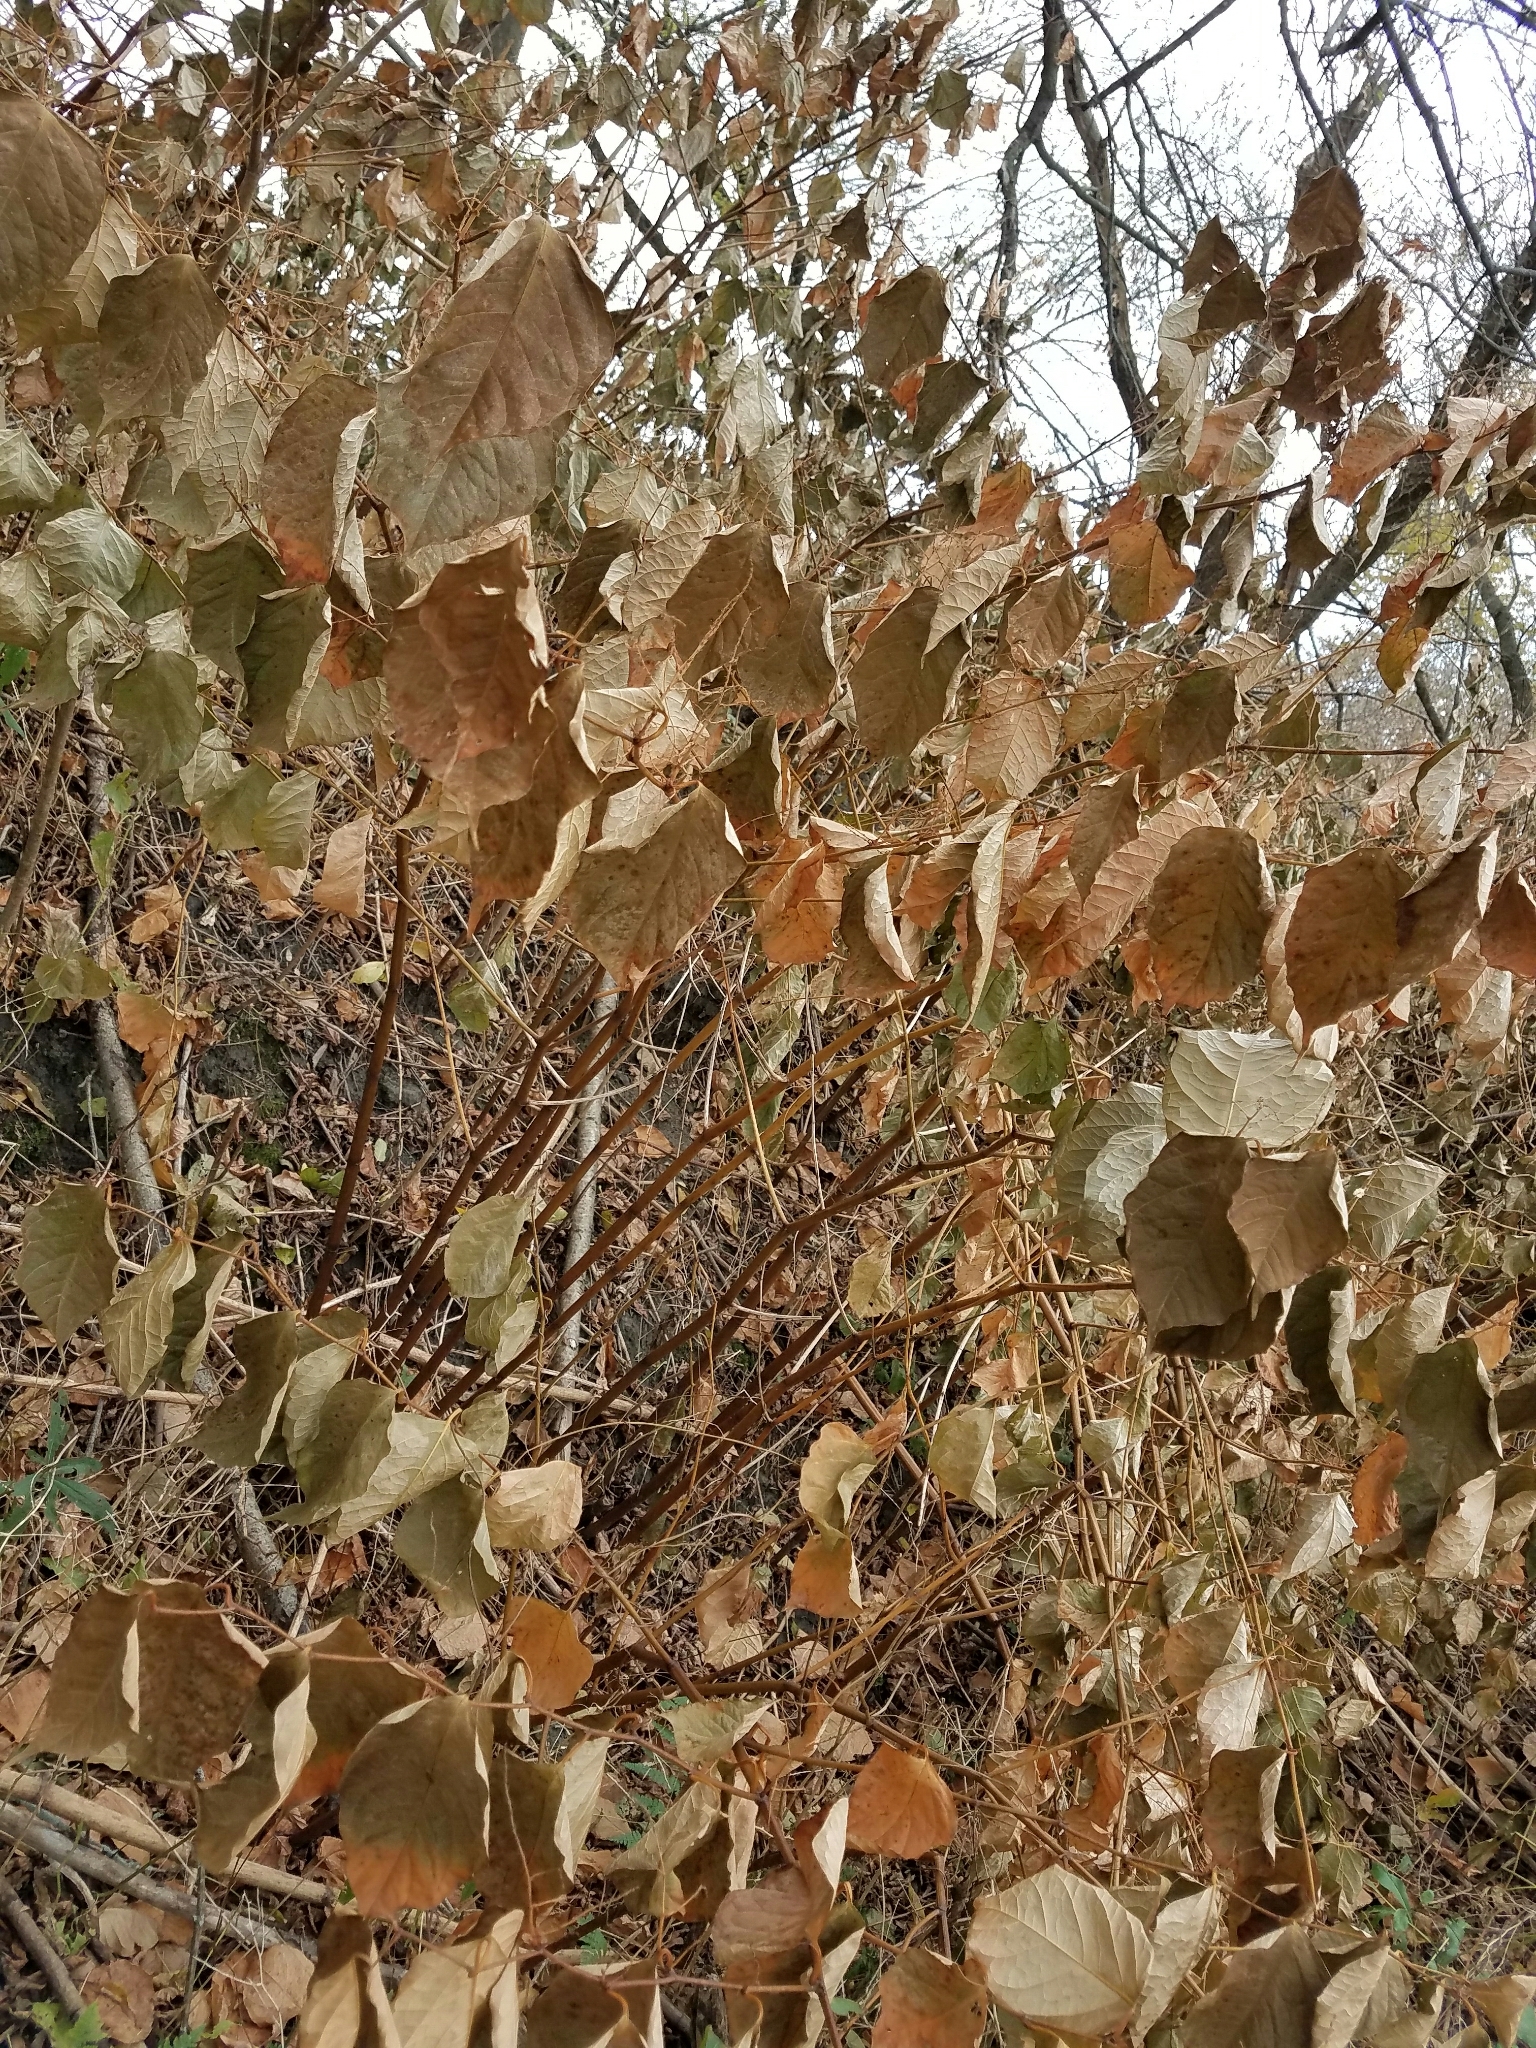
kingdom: Plantae
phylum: Tracheophyta
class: Magnoliopsida
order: Caryophyllales
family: Polygonaceae
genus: Reynoutria
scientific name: Reynoutria japonica
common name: Japanese knotweed
